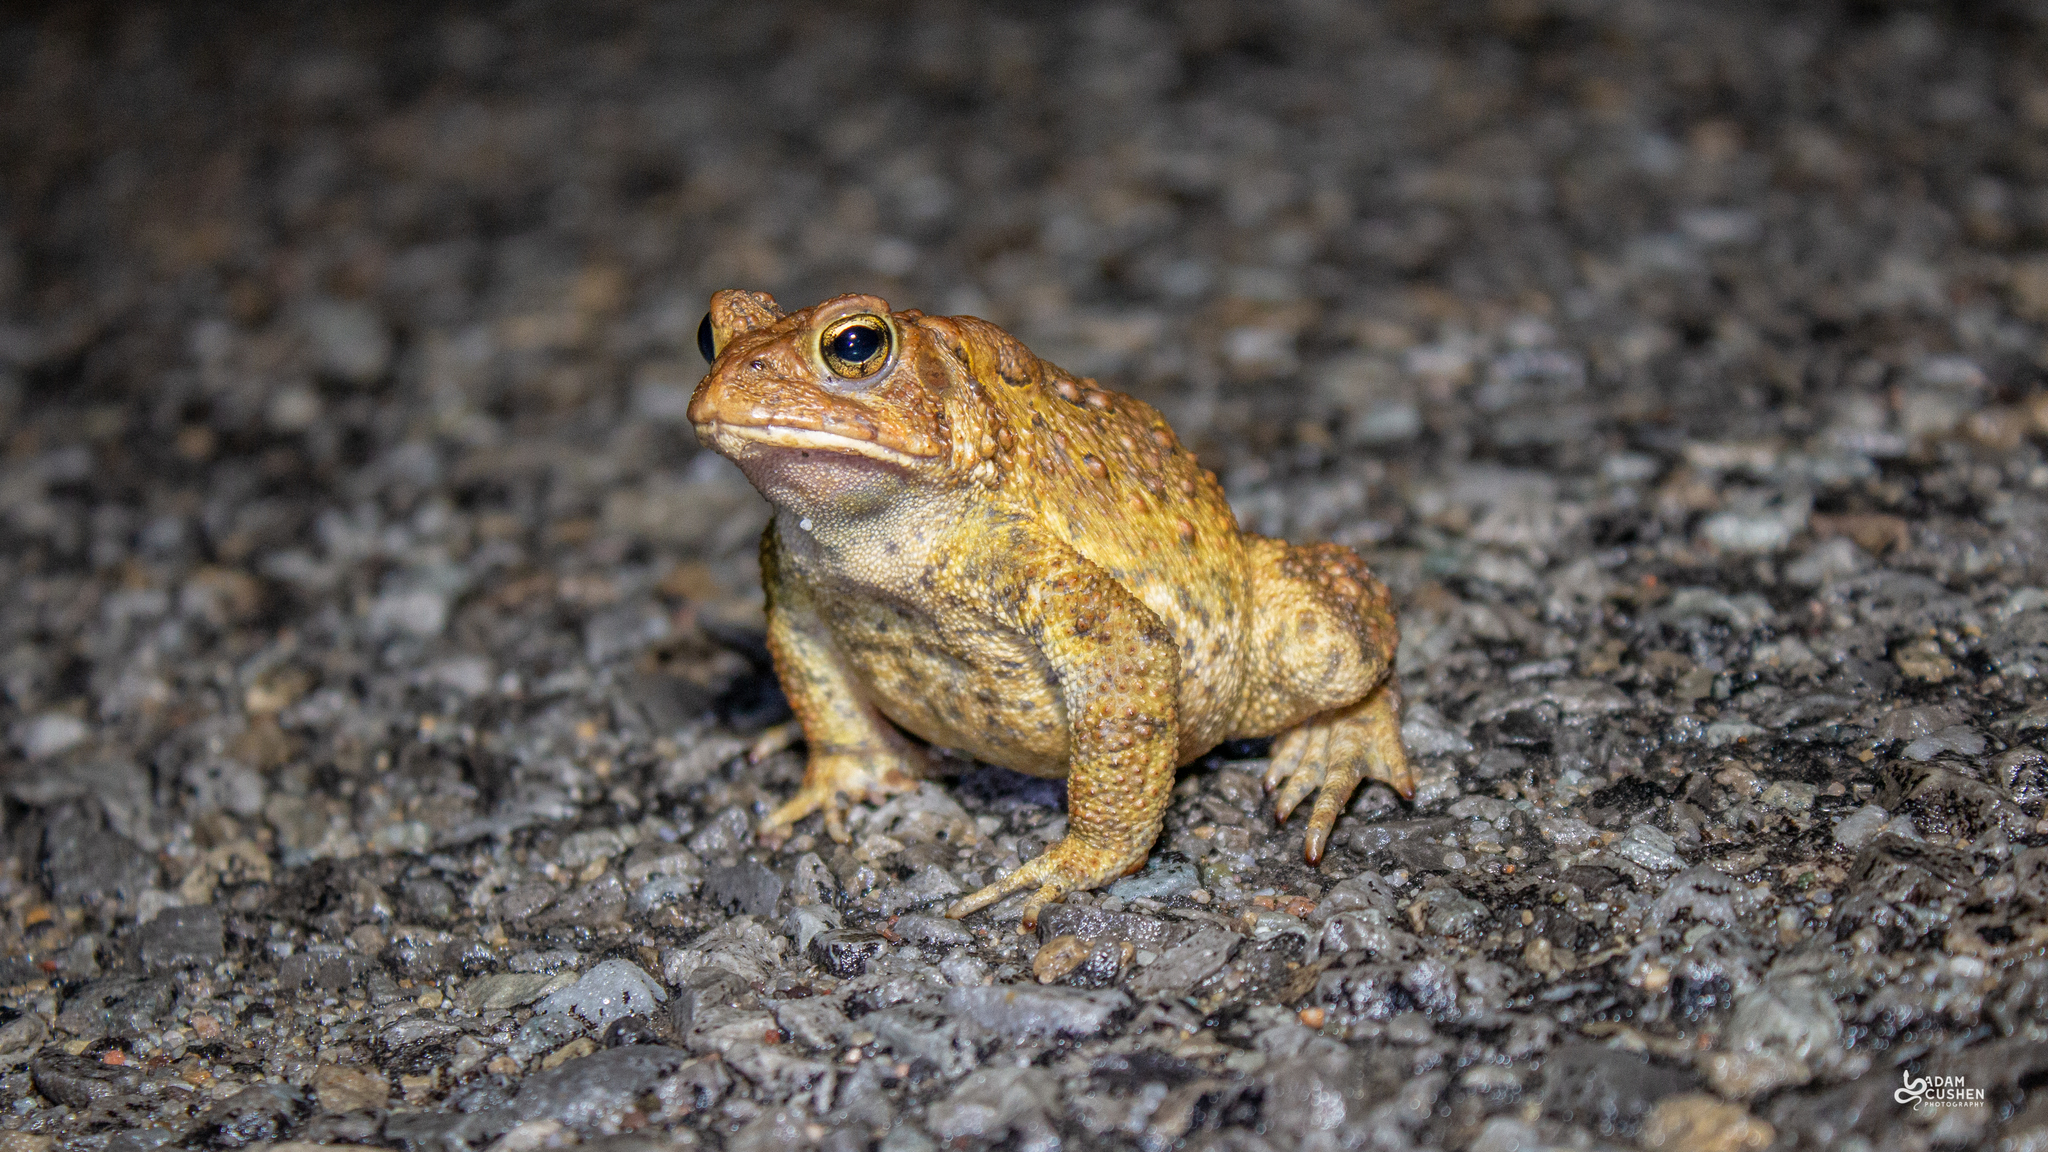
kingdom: Animalia
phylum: Chordata
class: Amphibia
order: Anura
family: Bufonidae
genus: Anaxyrus
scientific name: Anaxyrus americanus
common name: American toad
